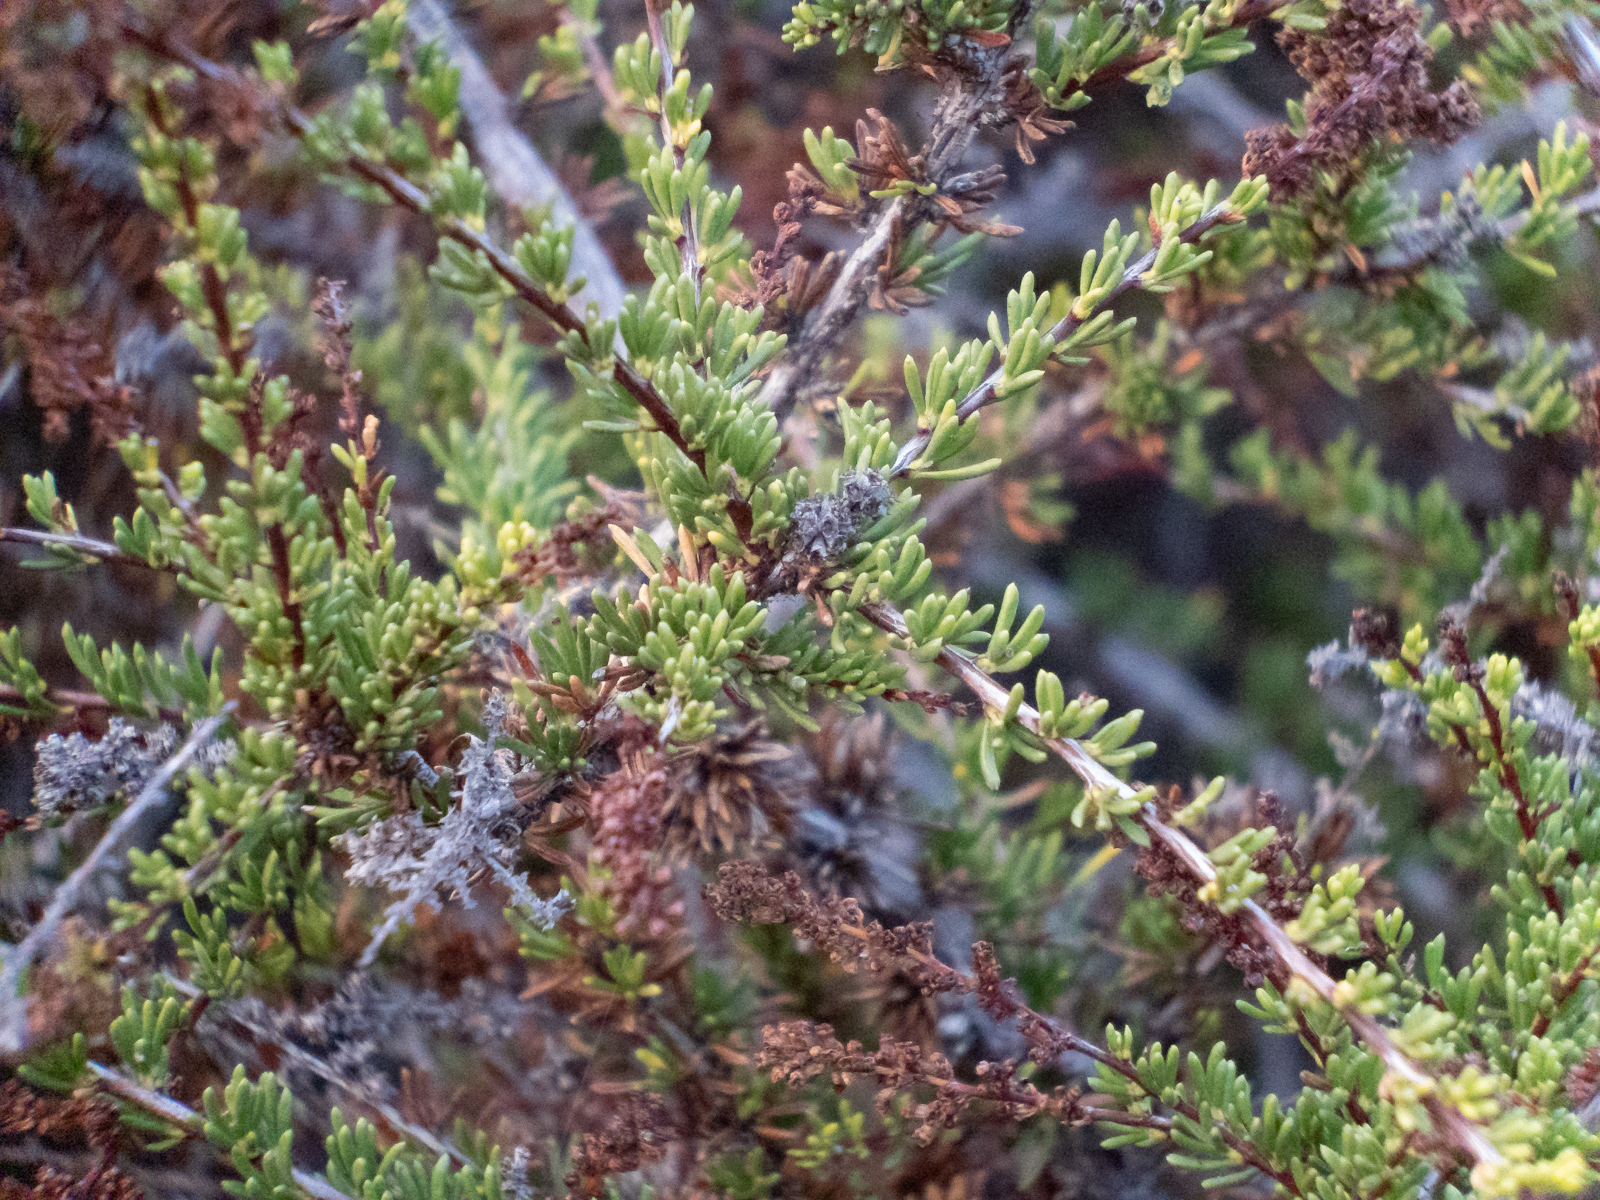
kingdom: Plantae
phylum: Tracheophyta
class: Magnoliopsida
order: Rosales
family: Rosaceae
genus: Adenostoma
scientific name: Adenostoma fasciculatum
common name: Chamise
